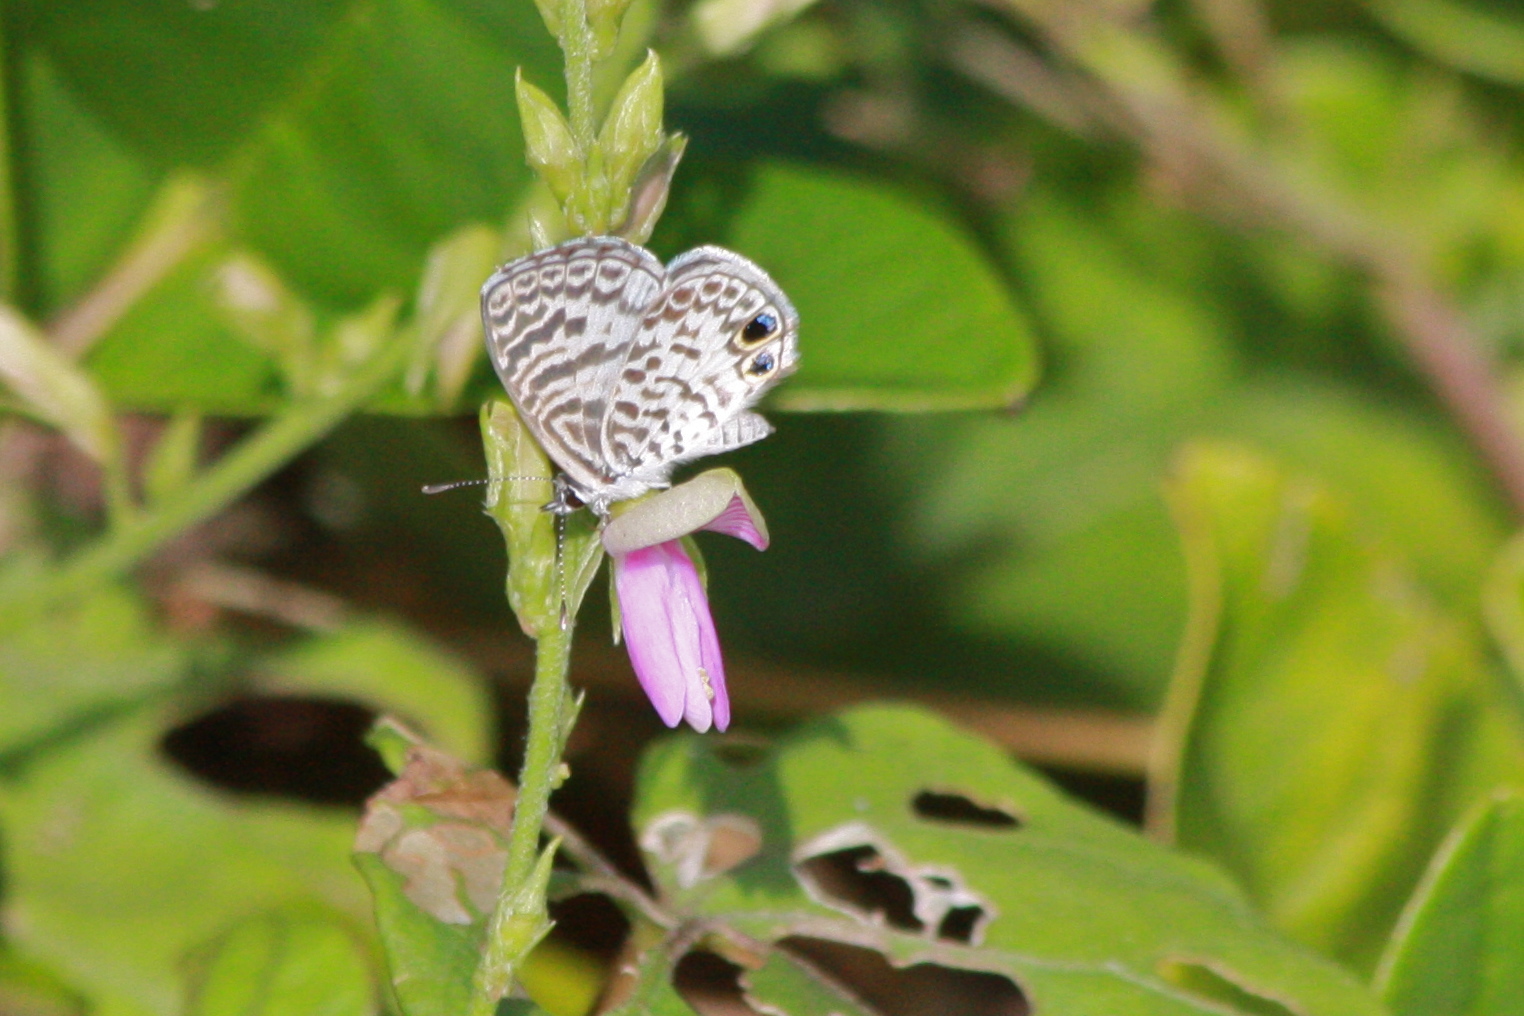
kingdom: Animalia
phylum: Arthropoda
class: Insecta
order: Lepidoptera
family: Lycaenidae
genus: Leptotes
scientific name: Leptotes cassius
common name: Cassius blue
